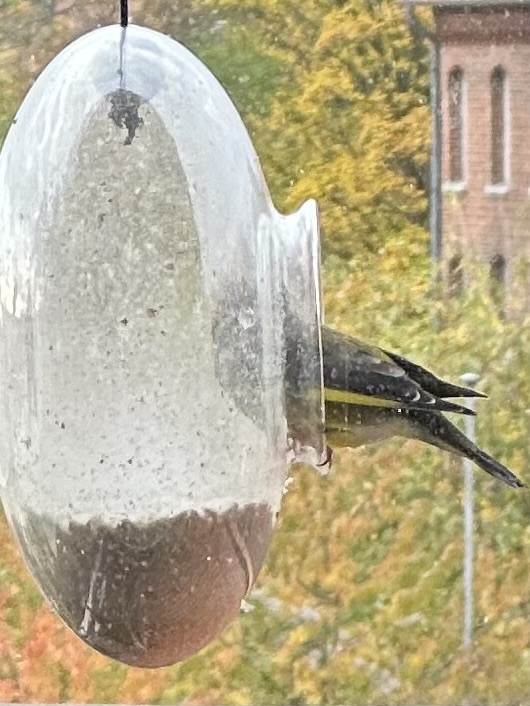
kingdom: Plantae
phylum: Tracheophyta
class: Liliopsida
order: Poales
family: Poaceae
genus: Chloris
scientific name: Chloris chloris
